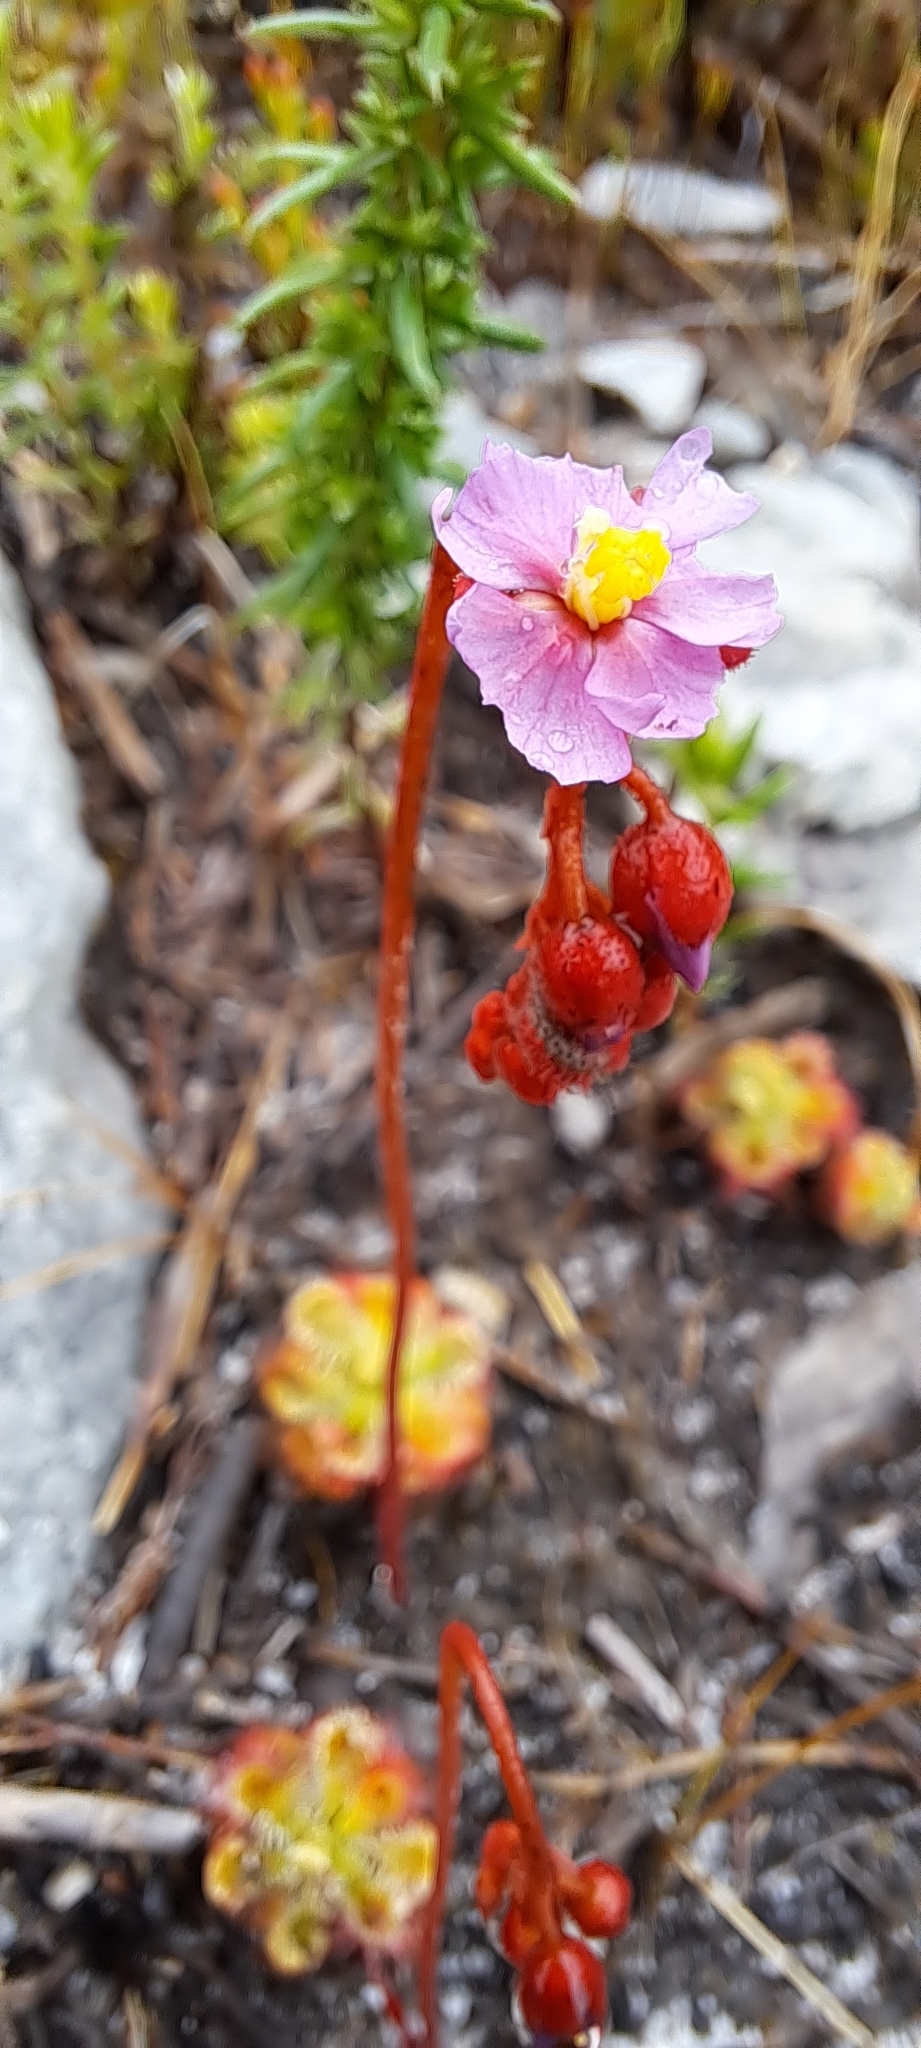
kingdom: Plantae
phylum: Tracheophyta
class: Magnoliopsida
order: Caryophyllales
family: Droseraceae
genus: Drosera
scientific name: Drosera xerophila
